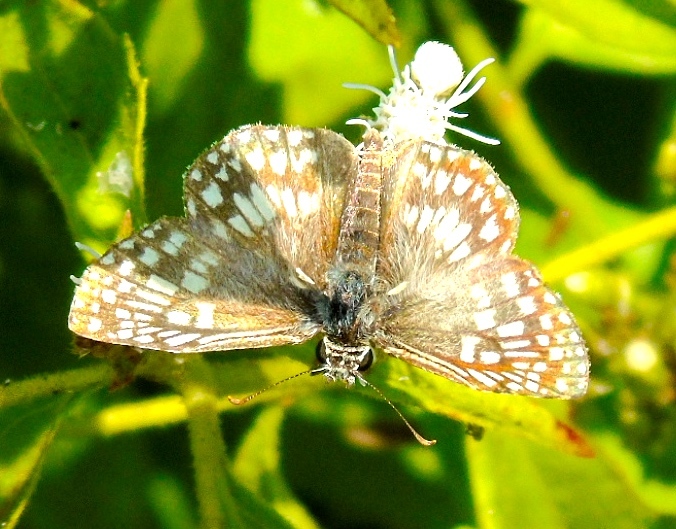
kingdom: Animalia
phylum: Arthropoda
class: Insecta
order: Lepidoptera
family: Hesperiidae
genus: Burnsius
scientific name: Burnsius
